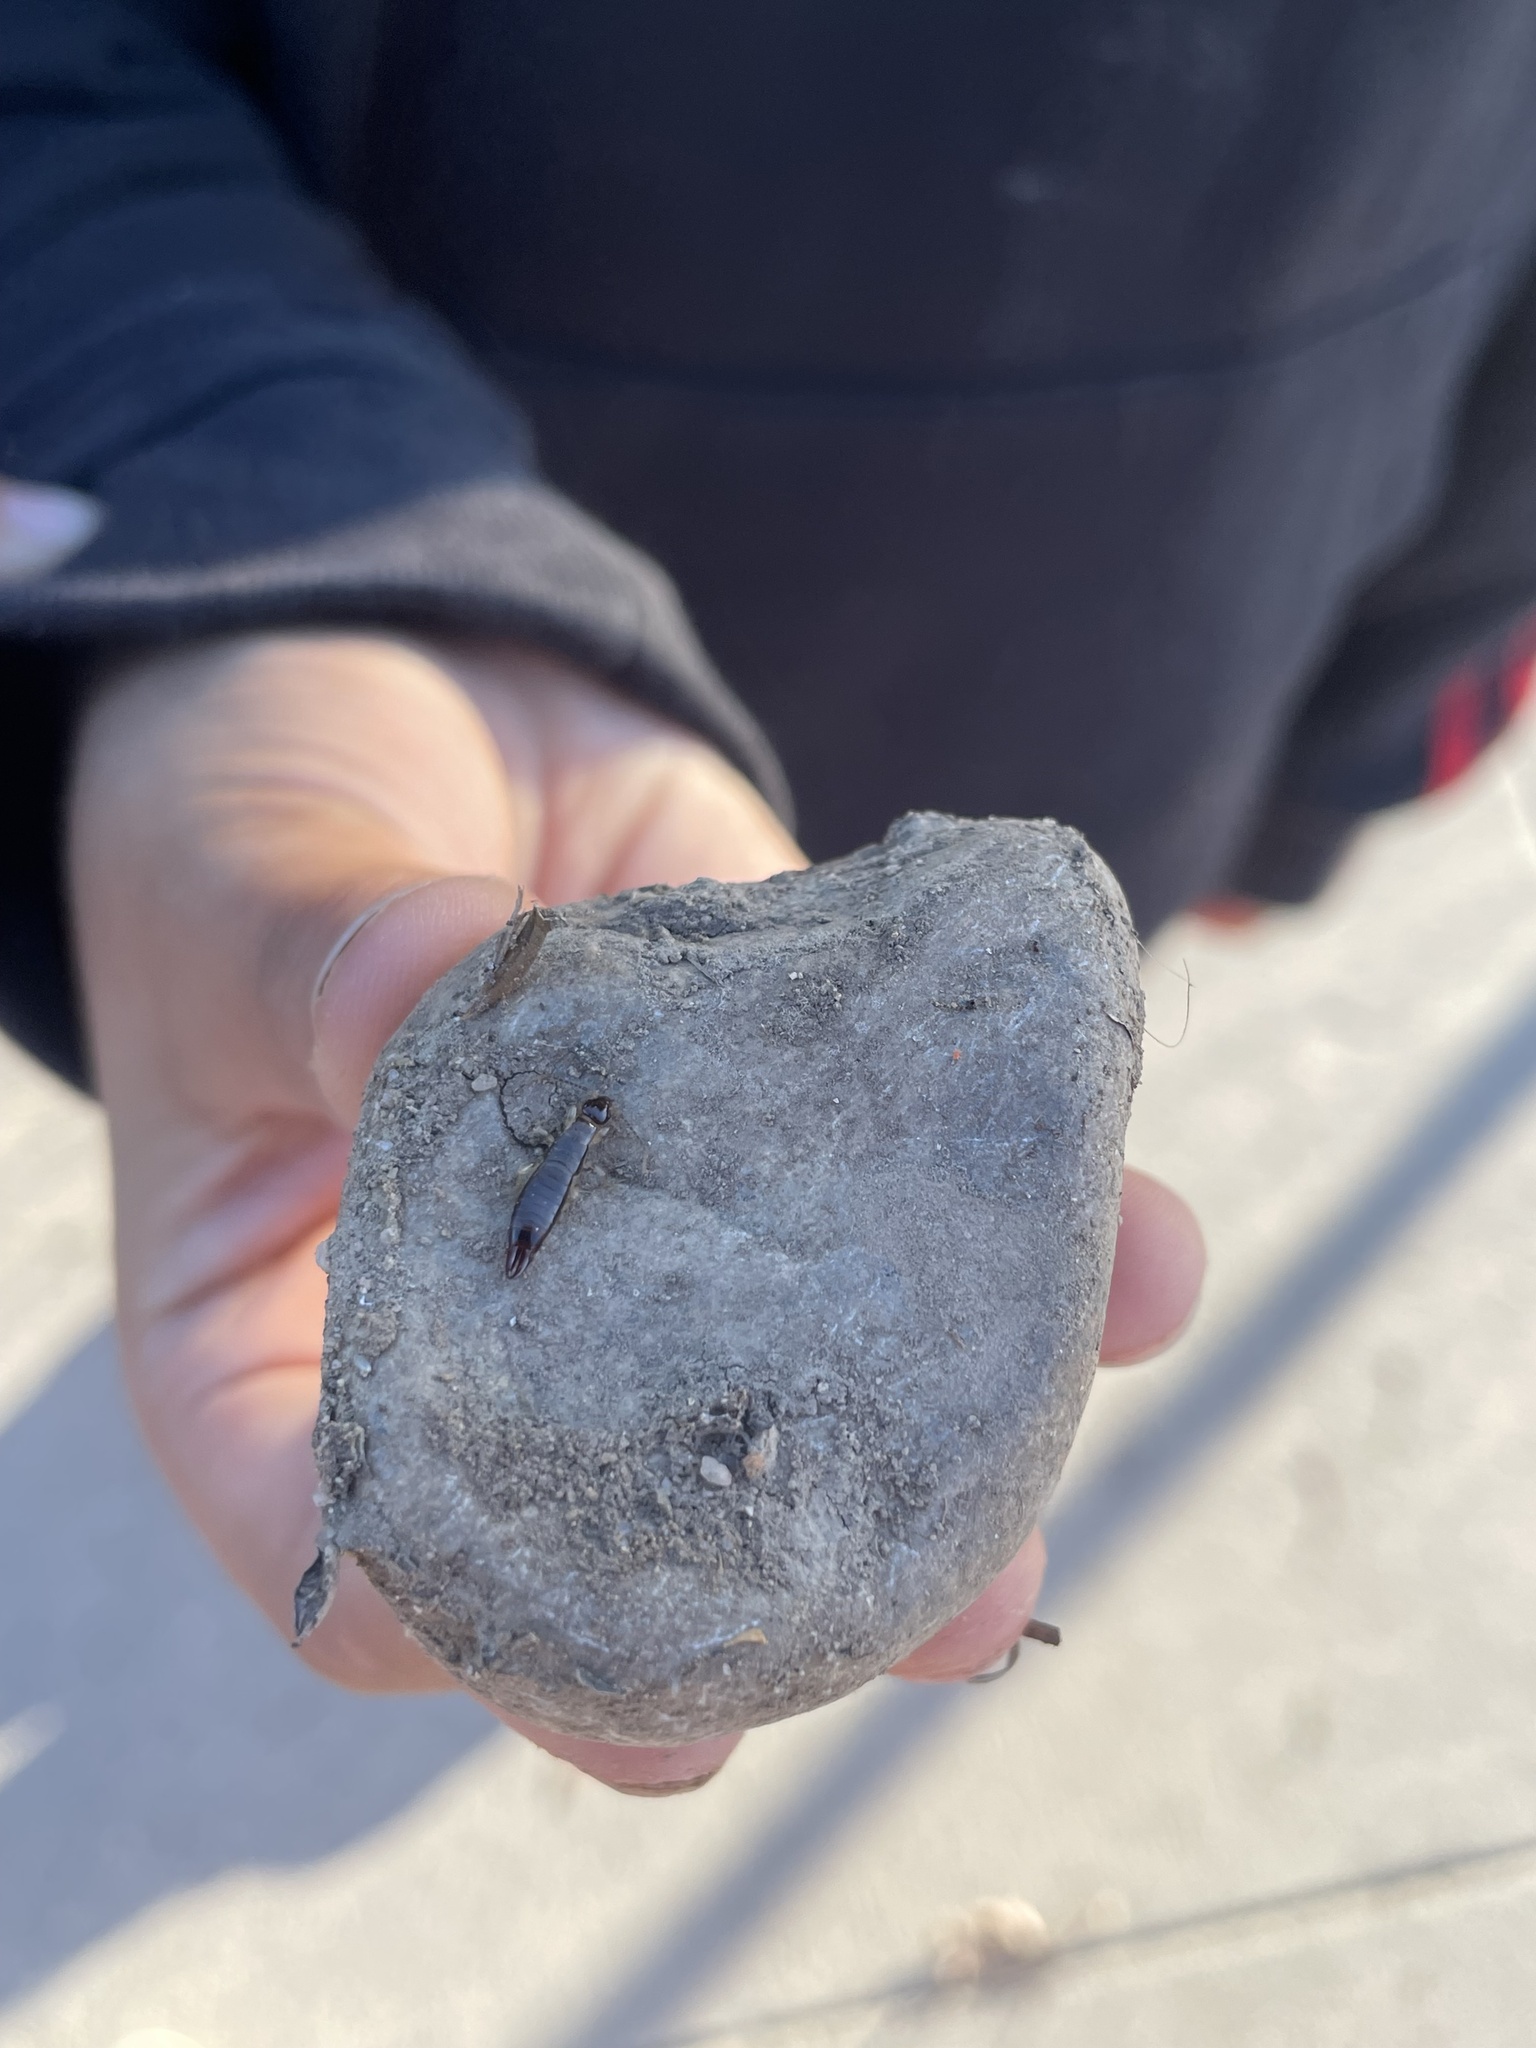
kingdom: Animalia
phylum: Arthropoda
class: Insecta
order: Dermaptera
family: Anisolabididae
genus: Euborellia
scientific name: Euborellia annulipes
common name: Ringlegged earwig
